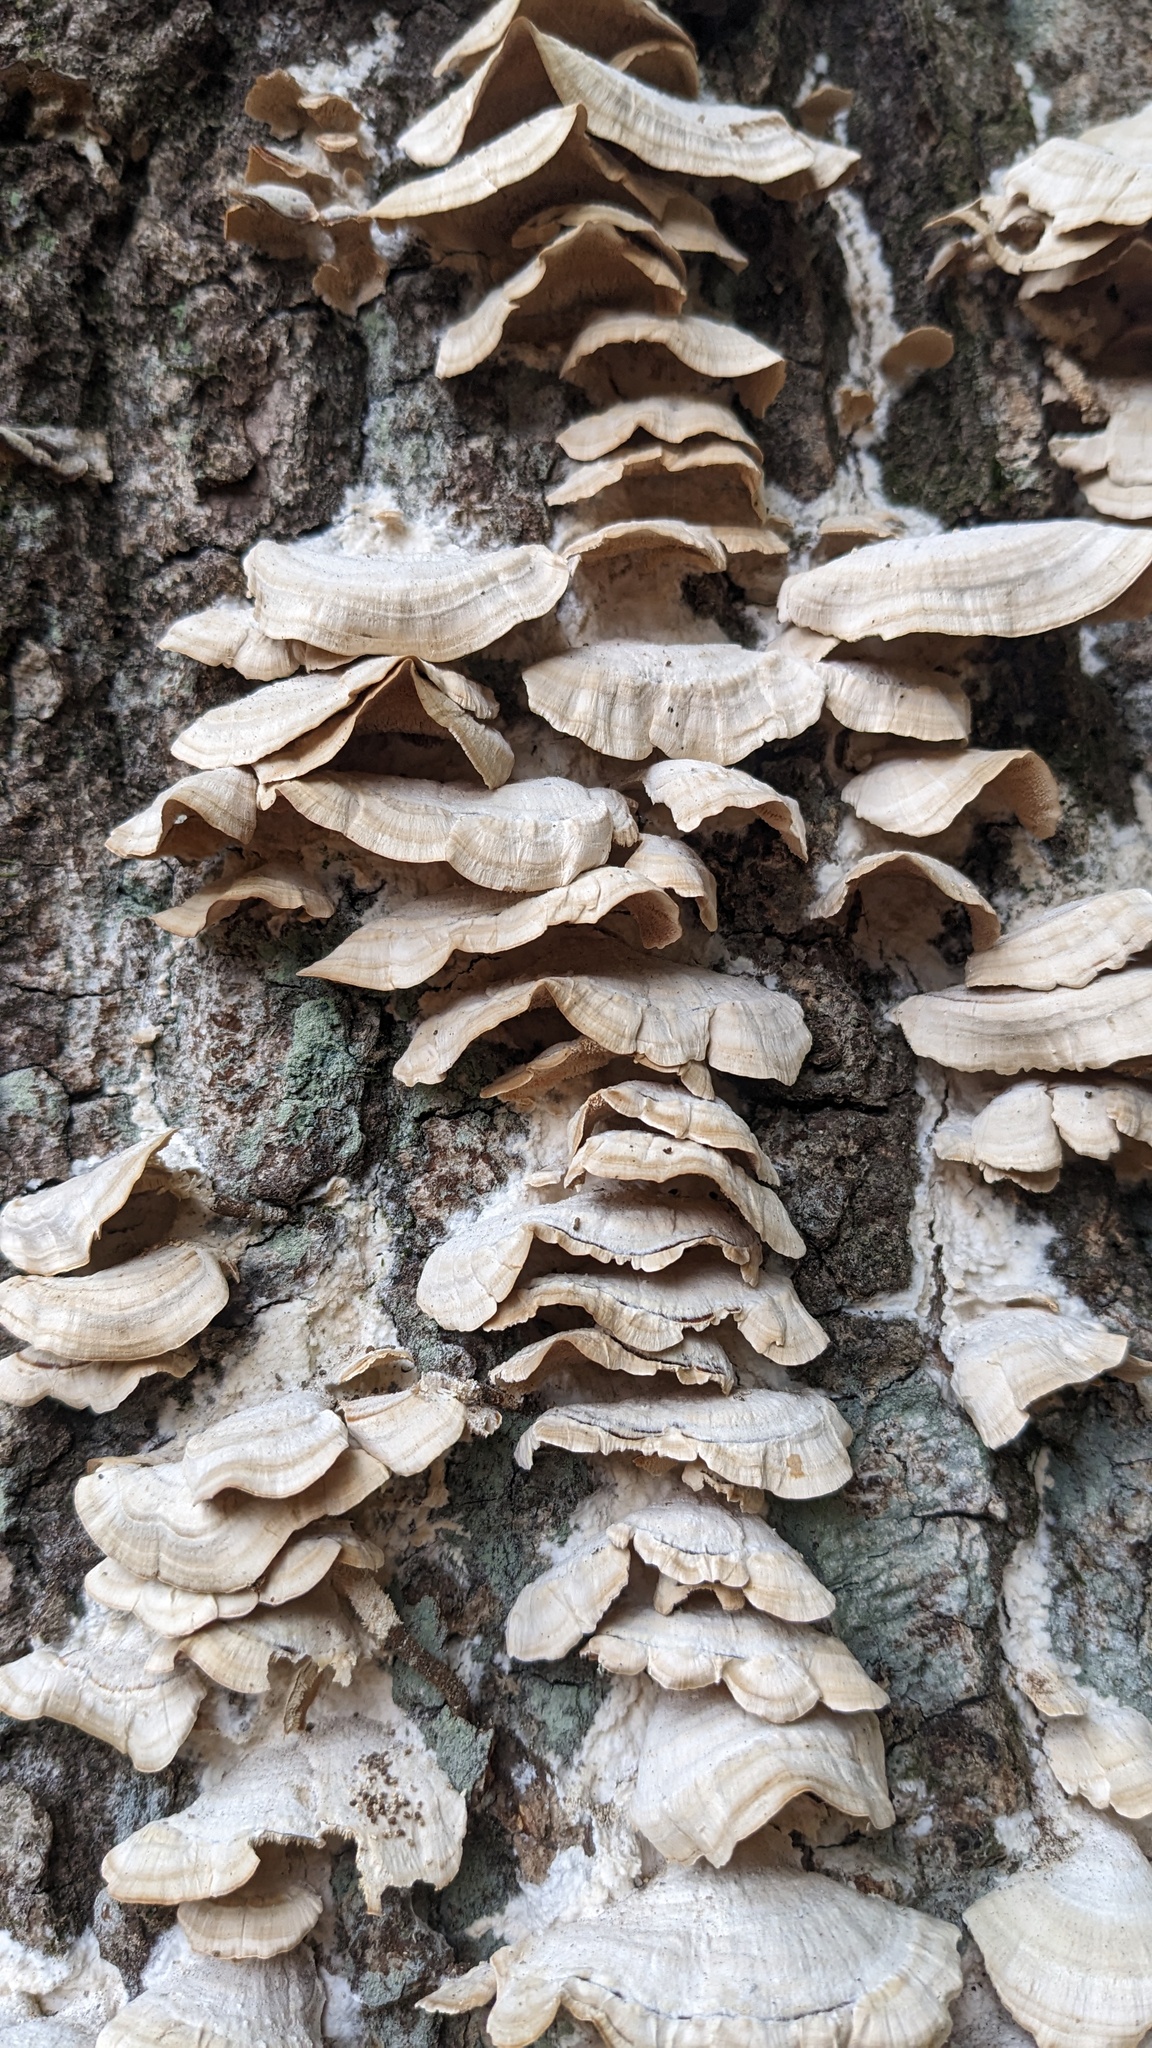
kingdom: Fungi
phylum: Basidiomycota
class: Agaricomycetes
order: Hymenochaetales
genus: Trichaptum
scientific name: Trichaptum biforme
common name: Violet-toothed polypore
